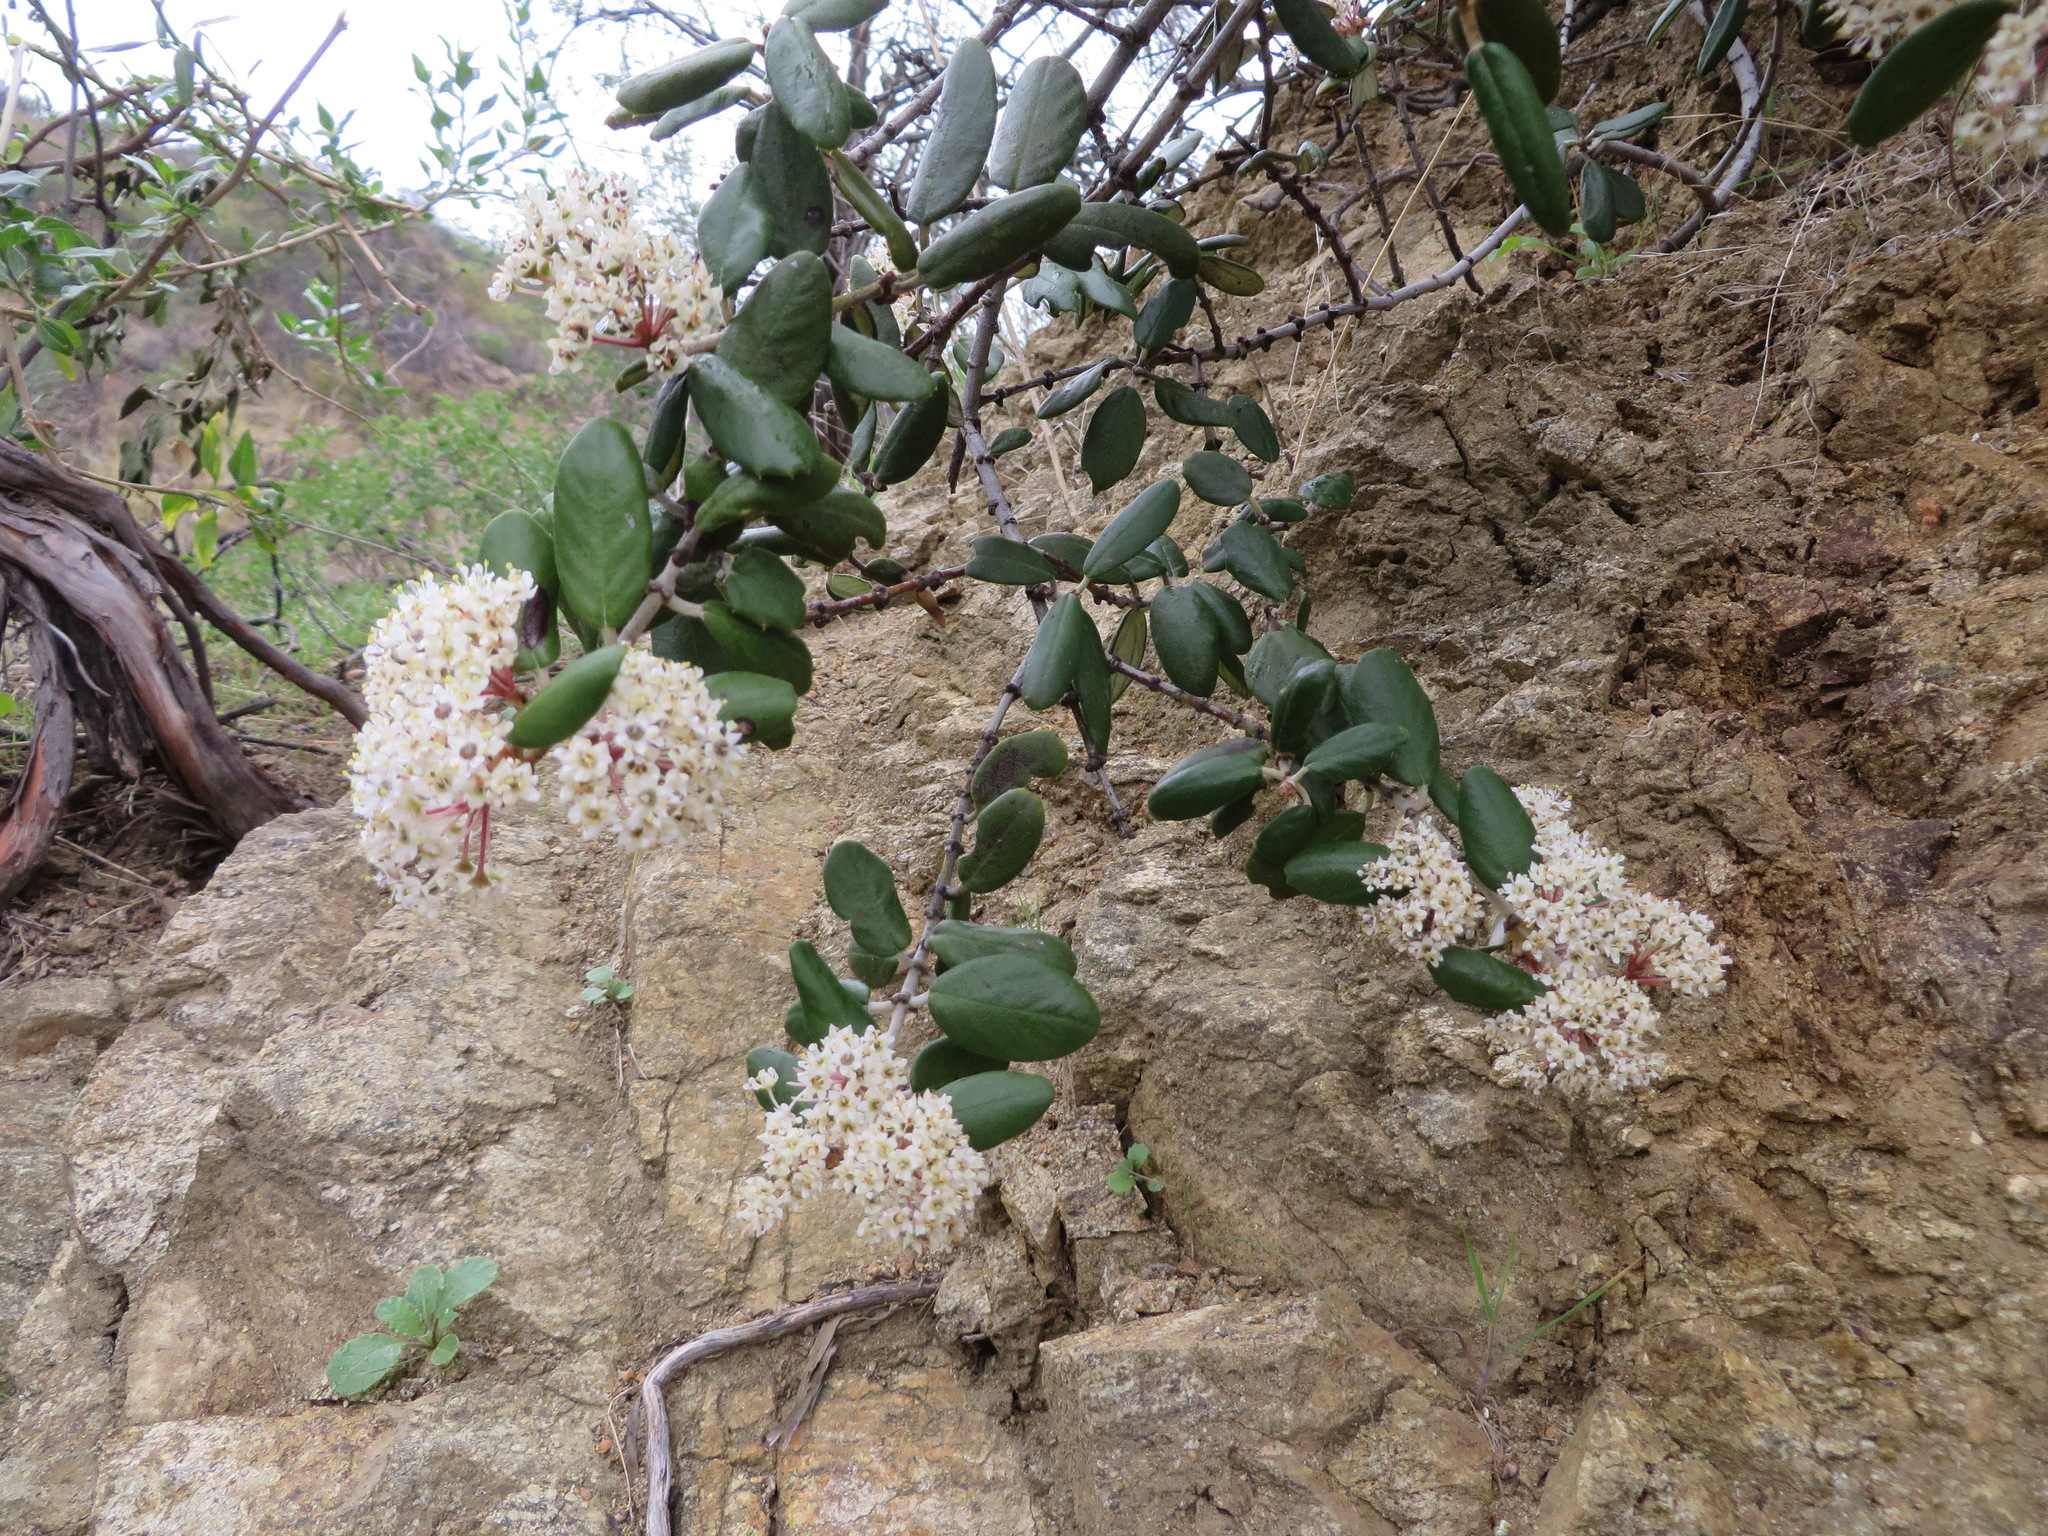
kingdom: Plantae
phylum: Tracheophyta
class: Magnoliopsida
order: Rosales
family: Rhamnaceae
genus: Ceanothus
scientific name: Ceanothus crassifolius
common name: Hoaryleaf ceanothus
